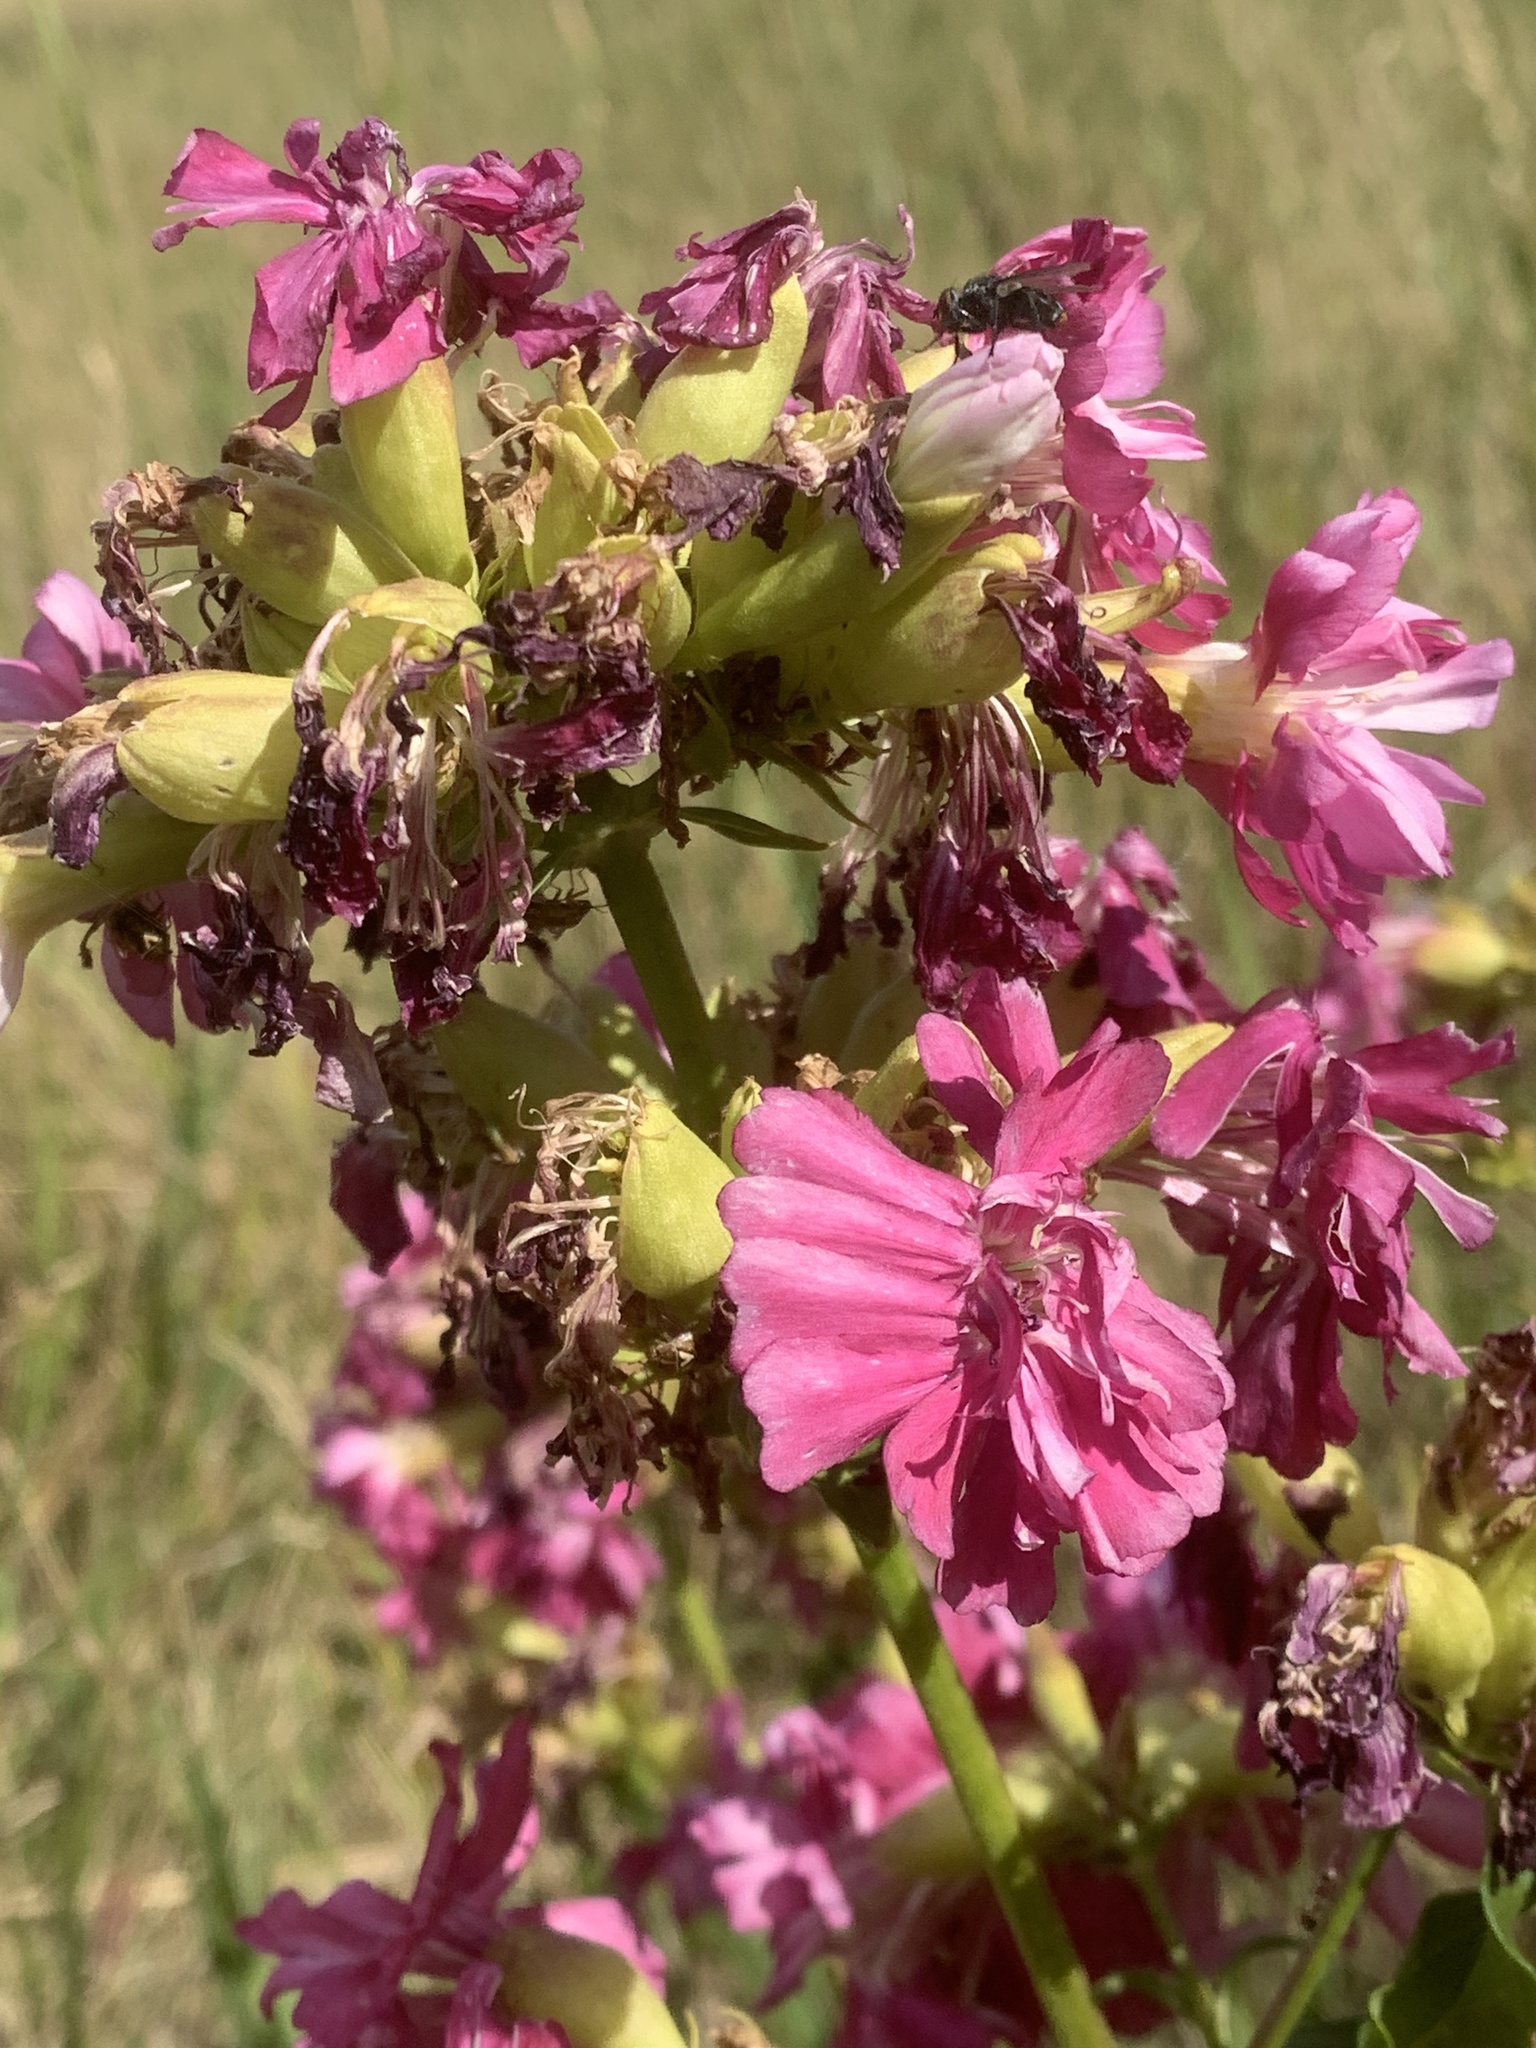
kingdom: Plantae
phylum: Tracheophyta
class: Magnoliopsida
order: Caryophyllales
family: Caryophyllaceae
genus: Saponaria
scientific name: Saponaria officinalis
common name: Soapwort
